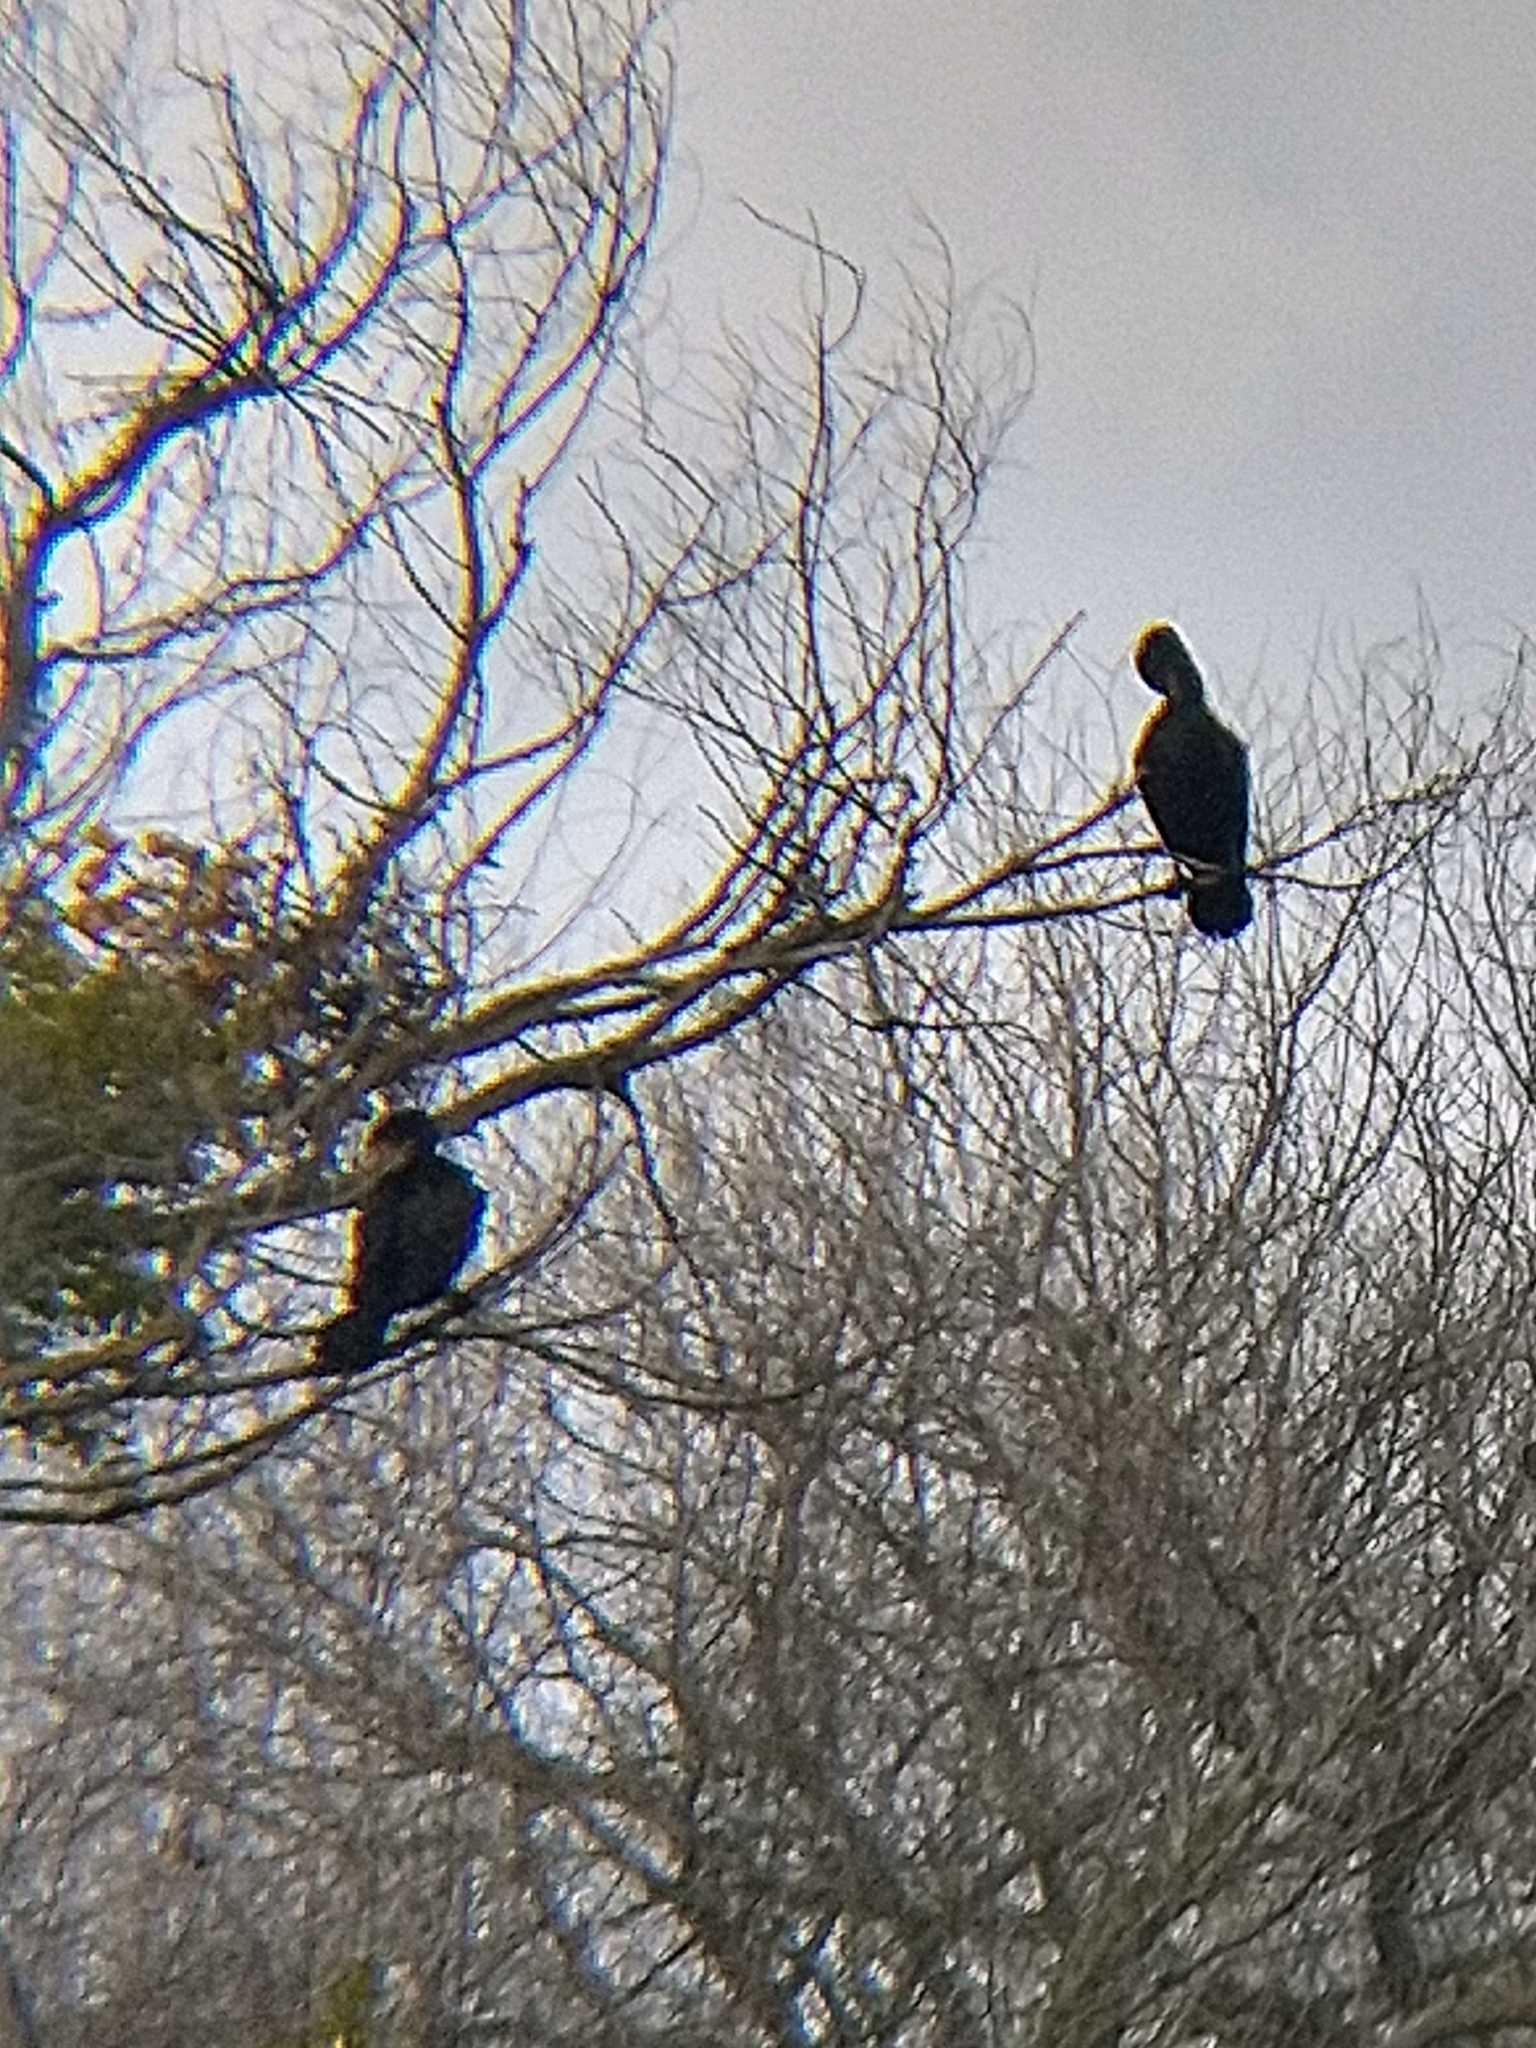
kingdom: Animalia
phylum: Chordata
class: Aves
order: Suliformes
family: Phalacrocoracidae
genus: Phalacrocorax
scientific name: Phalacrocorax auritus
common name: Double-crested cormorant
